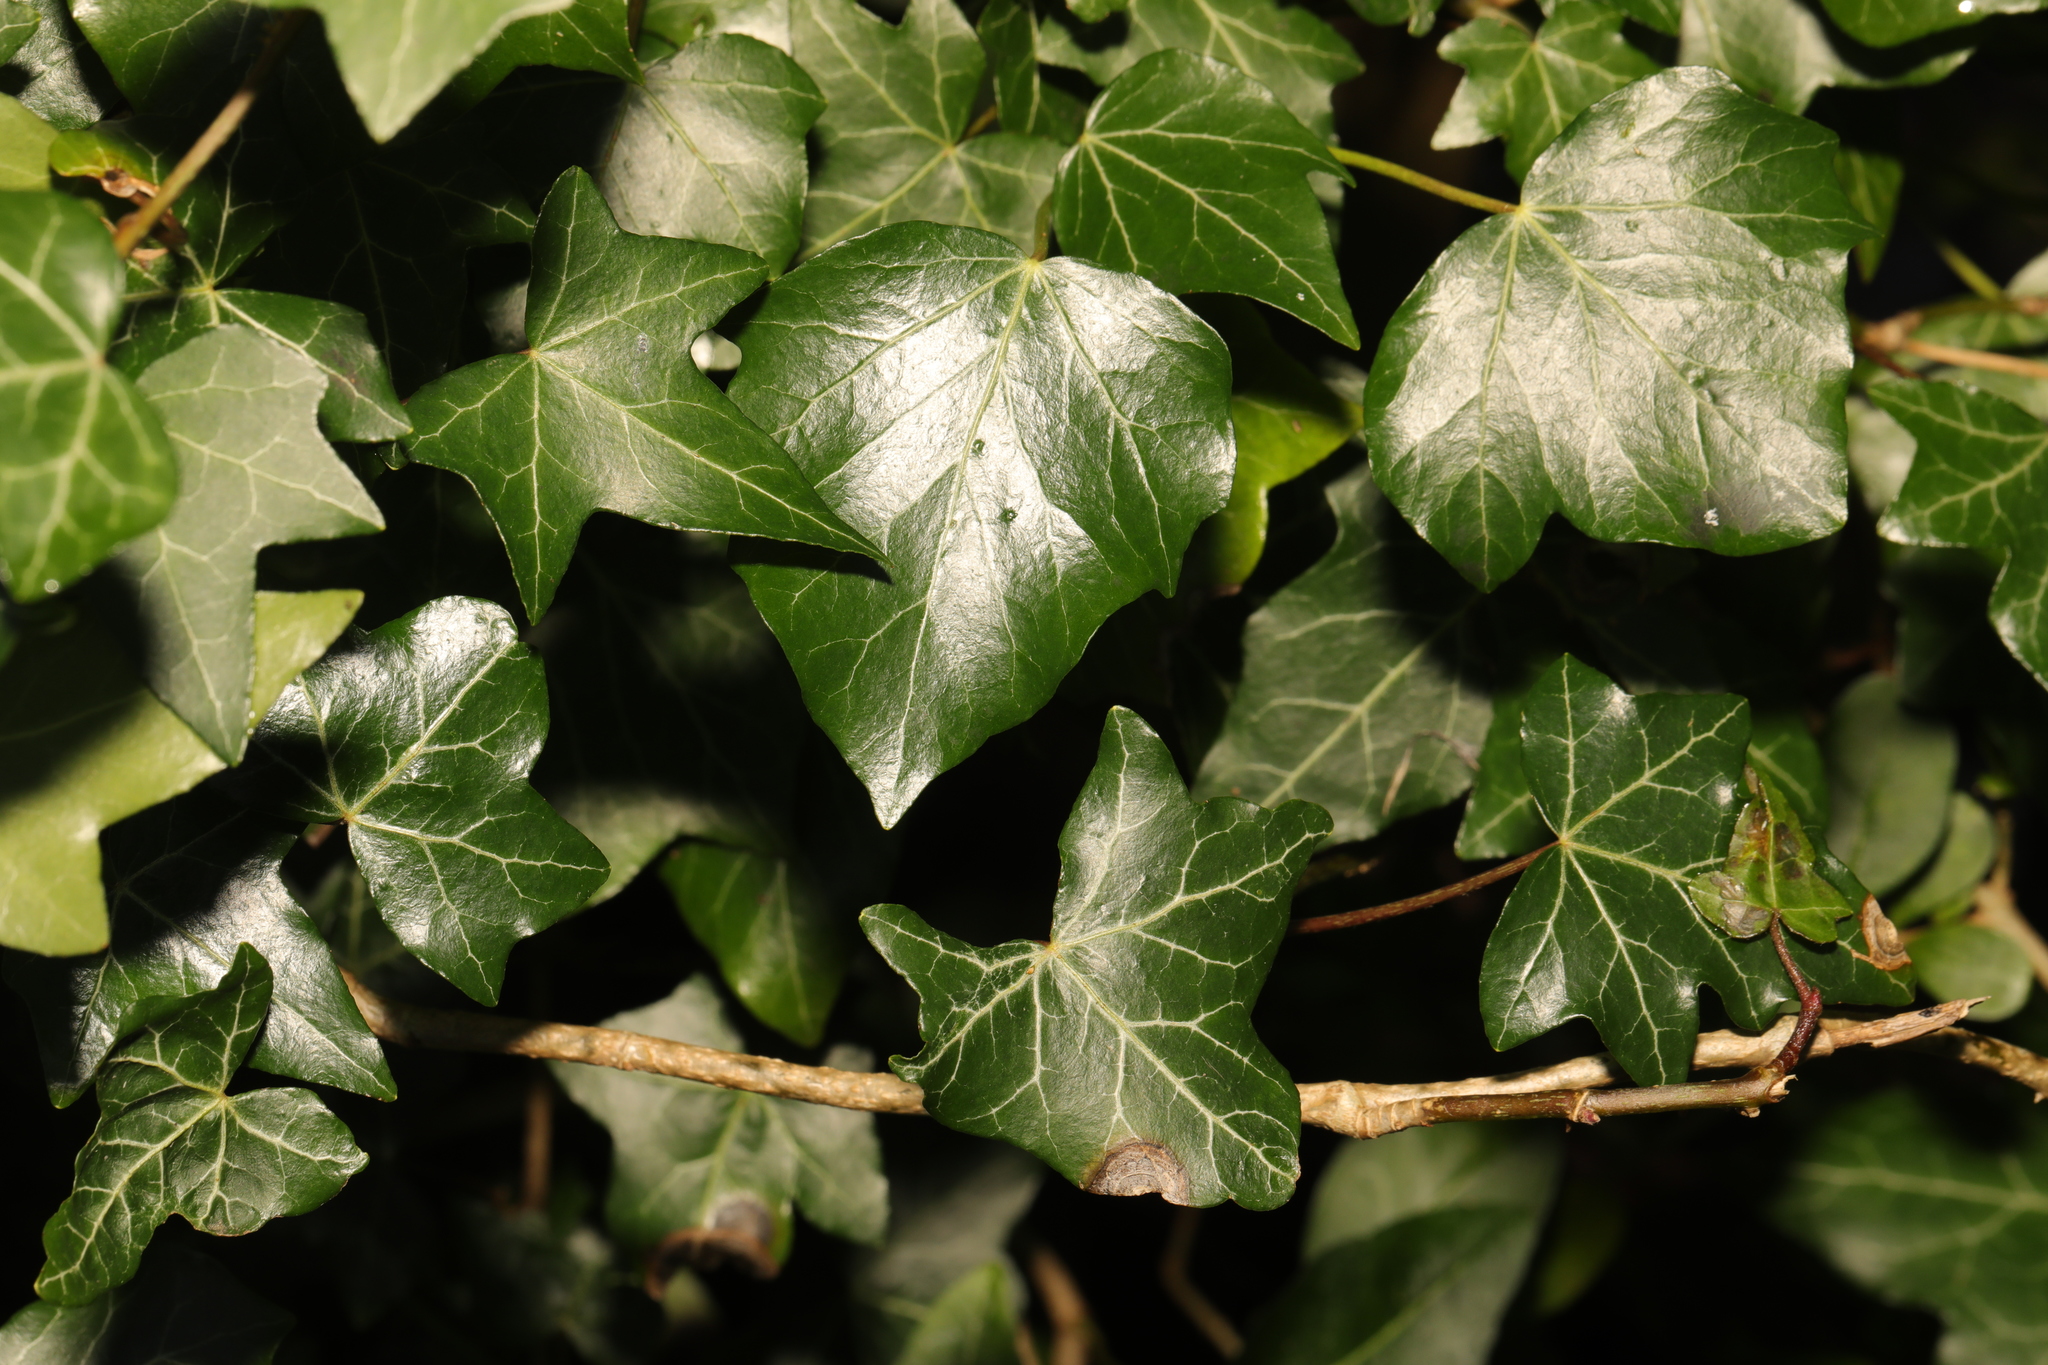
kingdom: Plantae
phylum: Tracheophyta
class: Magnoliopsida
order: Apiales
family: Araliaceae
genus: Hedera
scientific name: Hedera helix
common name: Ivy
